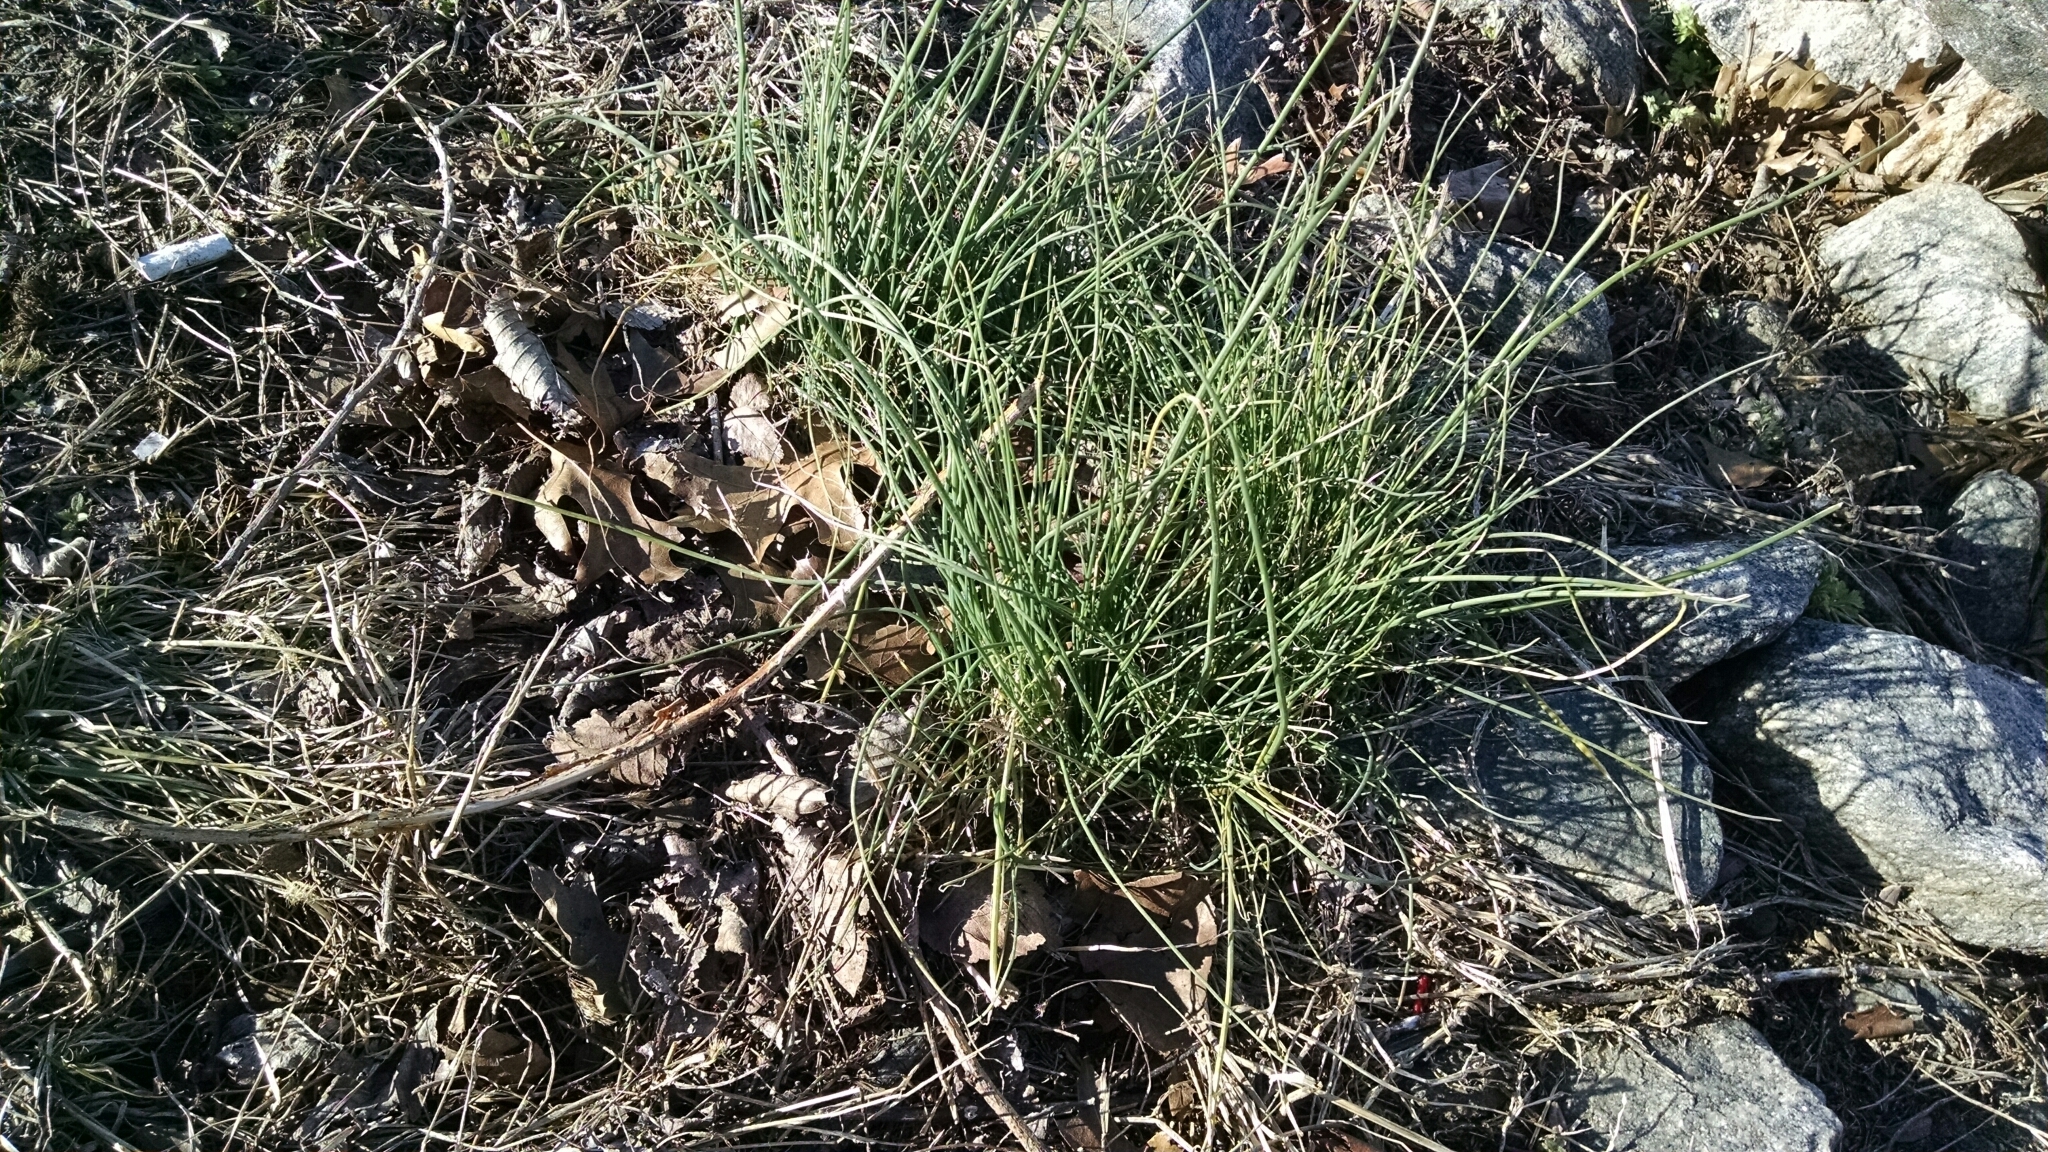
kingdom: Plantae
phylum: Tracheophyta
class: Liliopsida
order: Asparagales
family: Amaryllidaceae
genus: Allium
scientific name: Allium vineale
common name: Crow garlic
